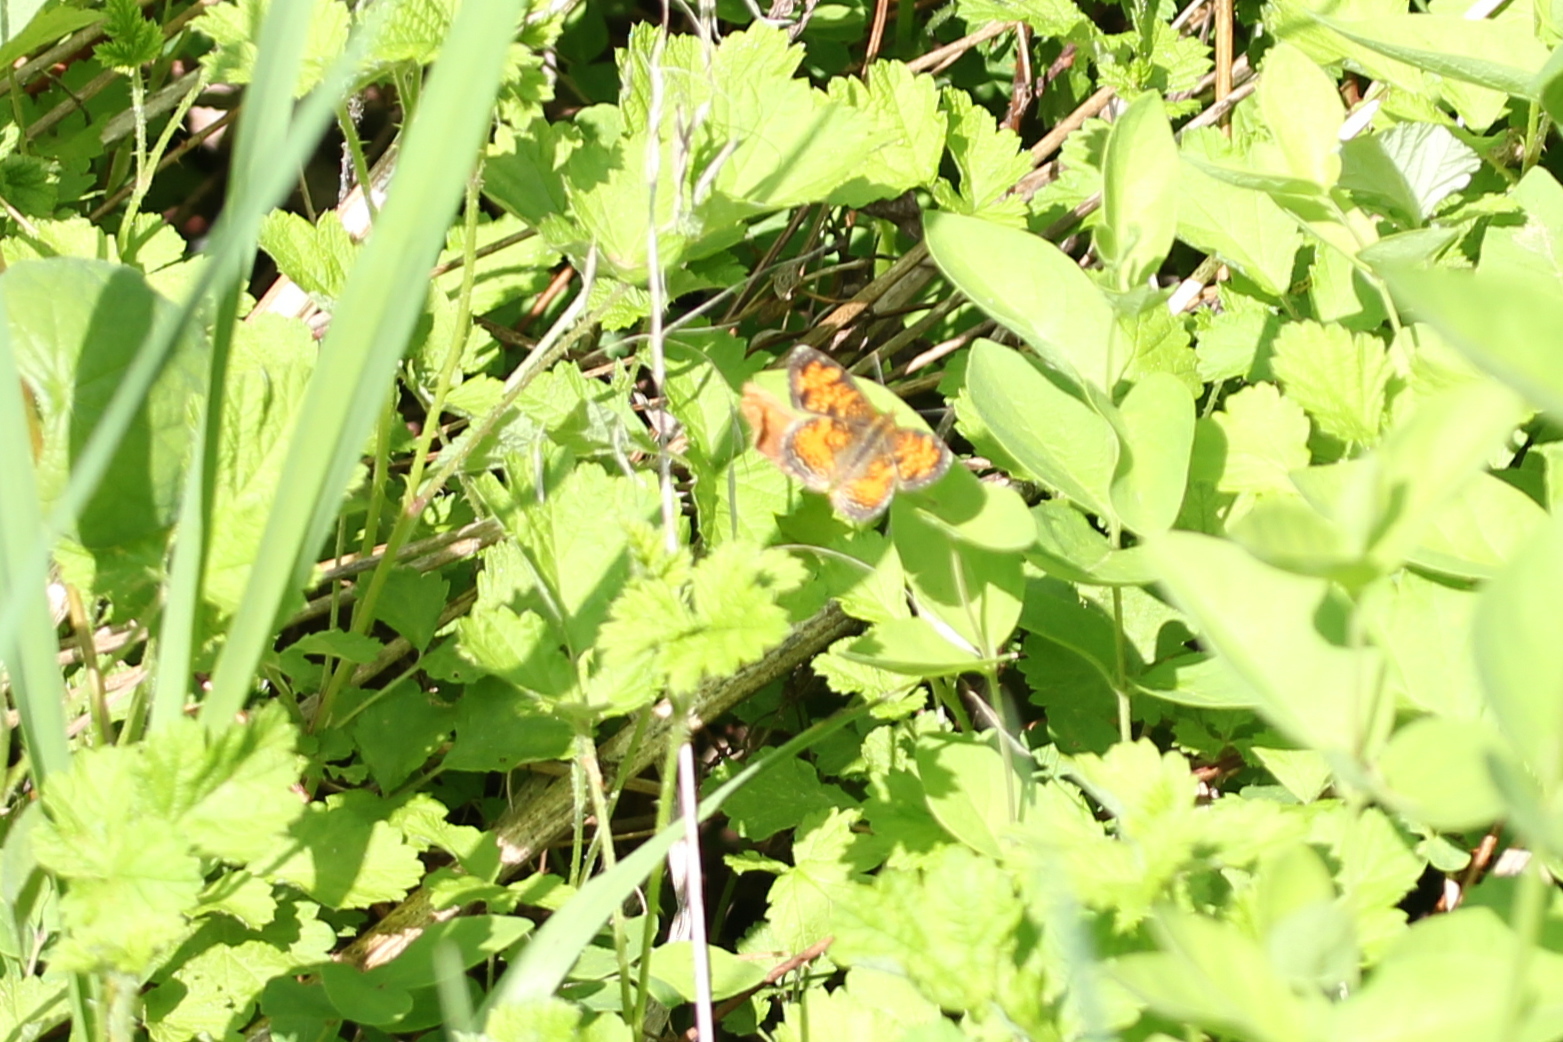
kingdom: Animalia
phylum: Arthropoda
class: Insecta
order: Lepidoptera
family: Nymphalidae
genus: Phyciodes
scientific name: Phyciodes tharos
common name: Pearl crescent
